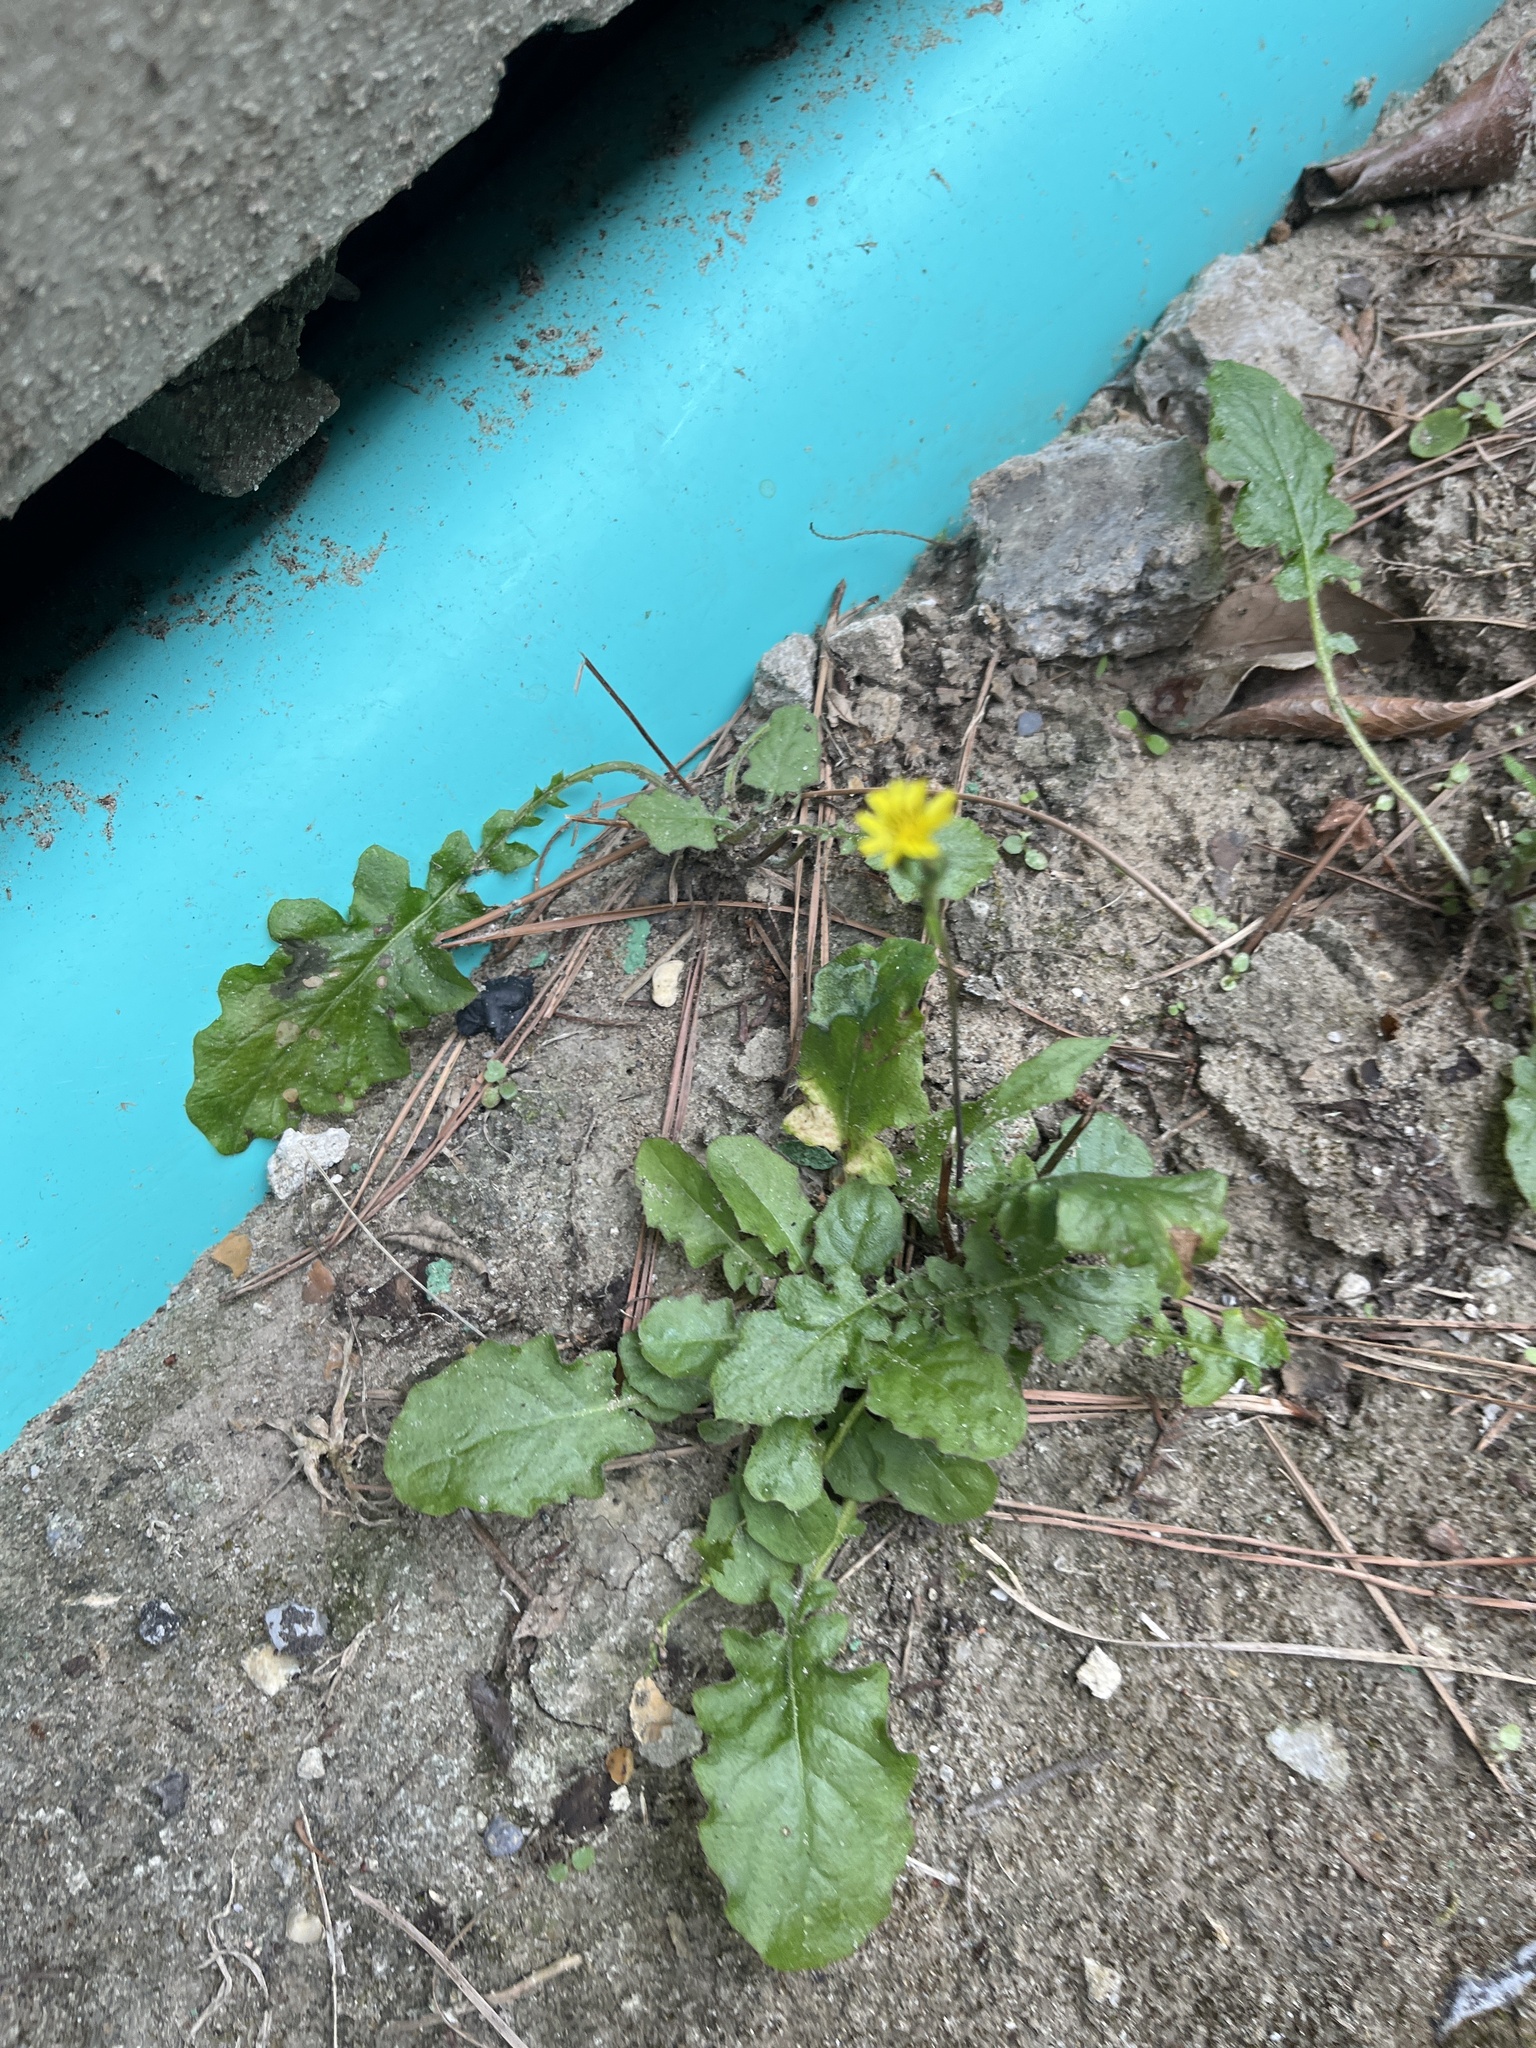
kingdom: Plantae
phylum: Tracheophyta
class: Magnoliopsida
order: Asterales
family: Asteraceae
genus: Youngia
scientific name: Youngia japonica
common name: Oriental false hawksbeard
